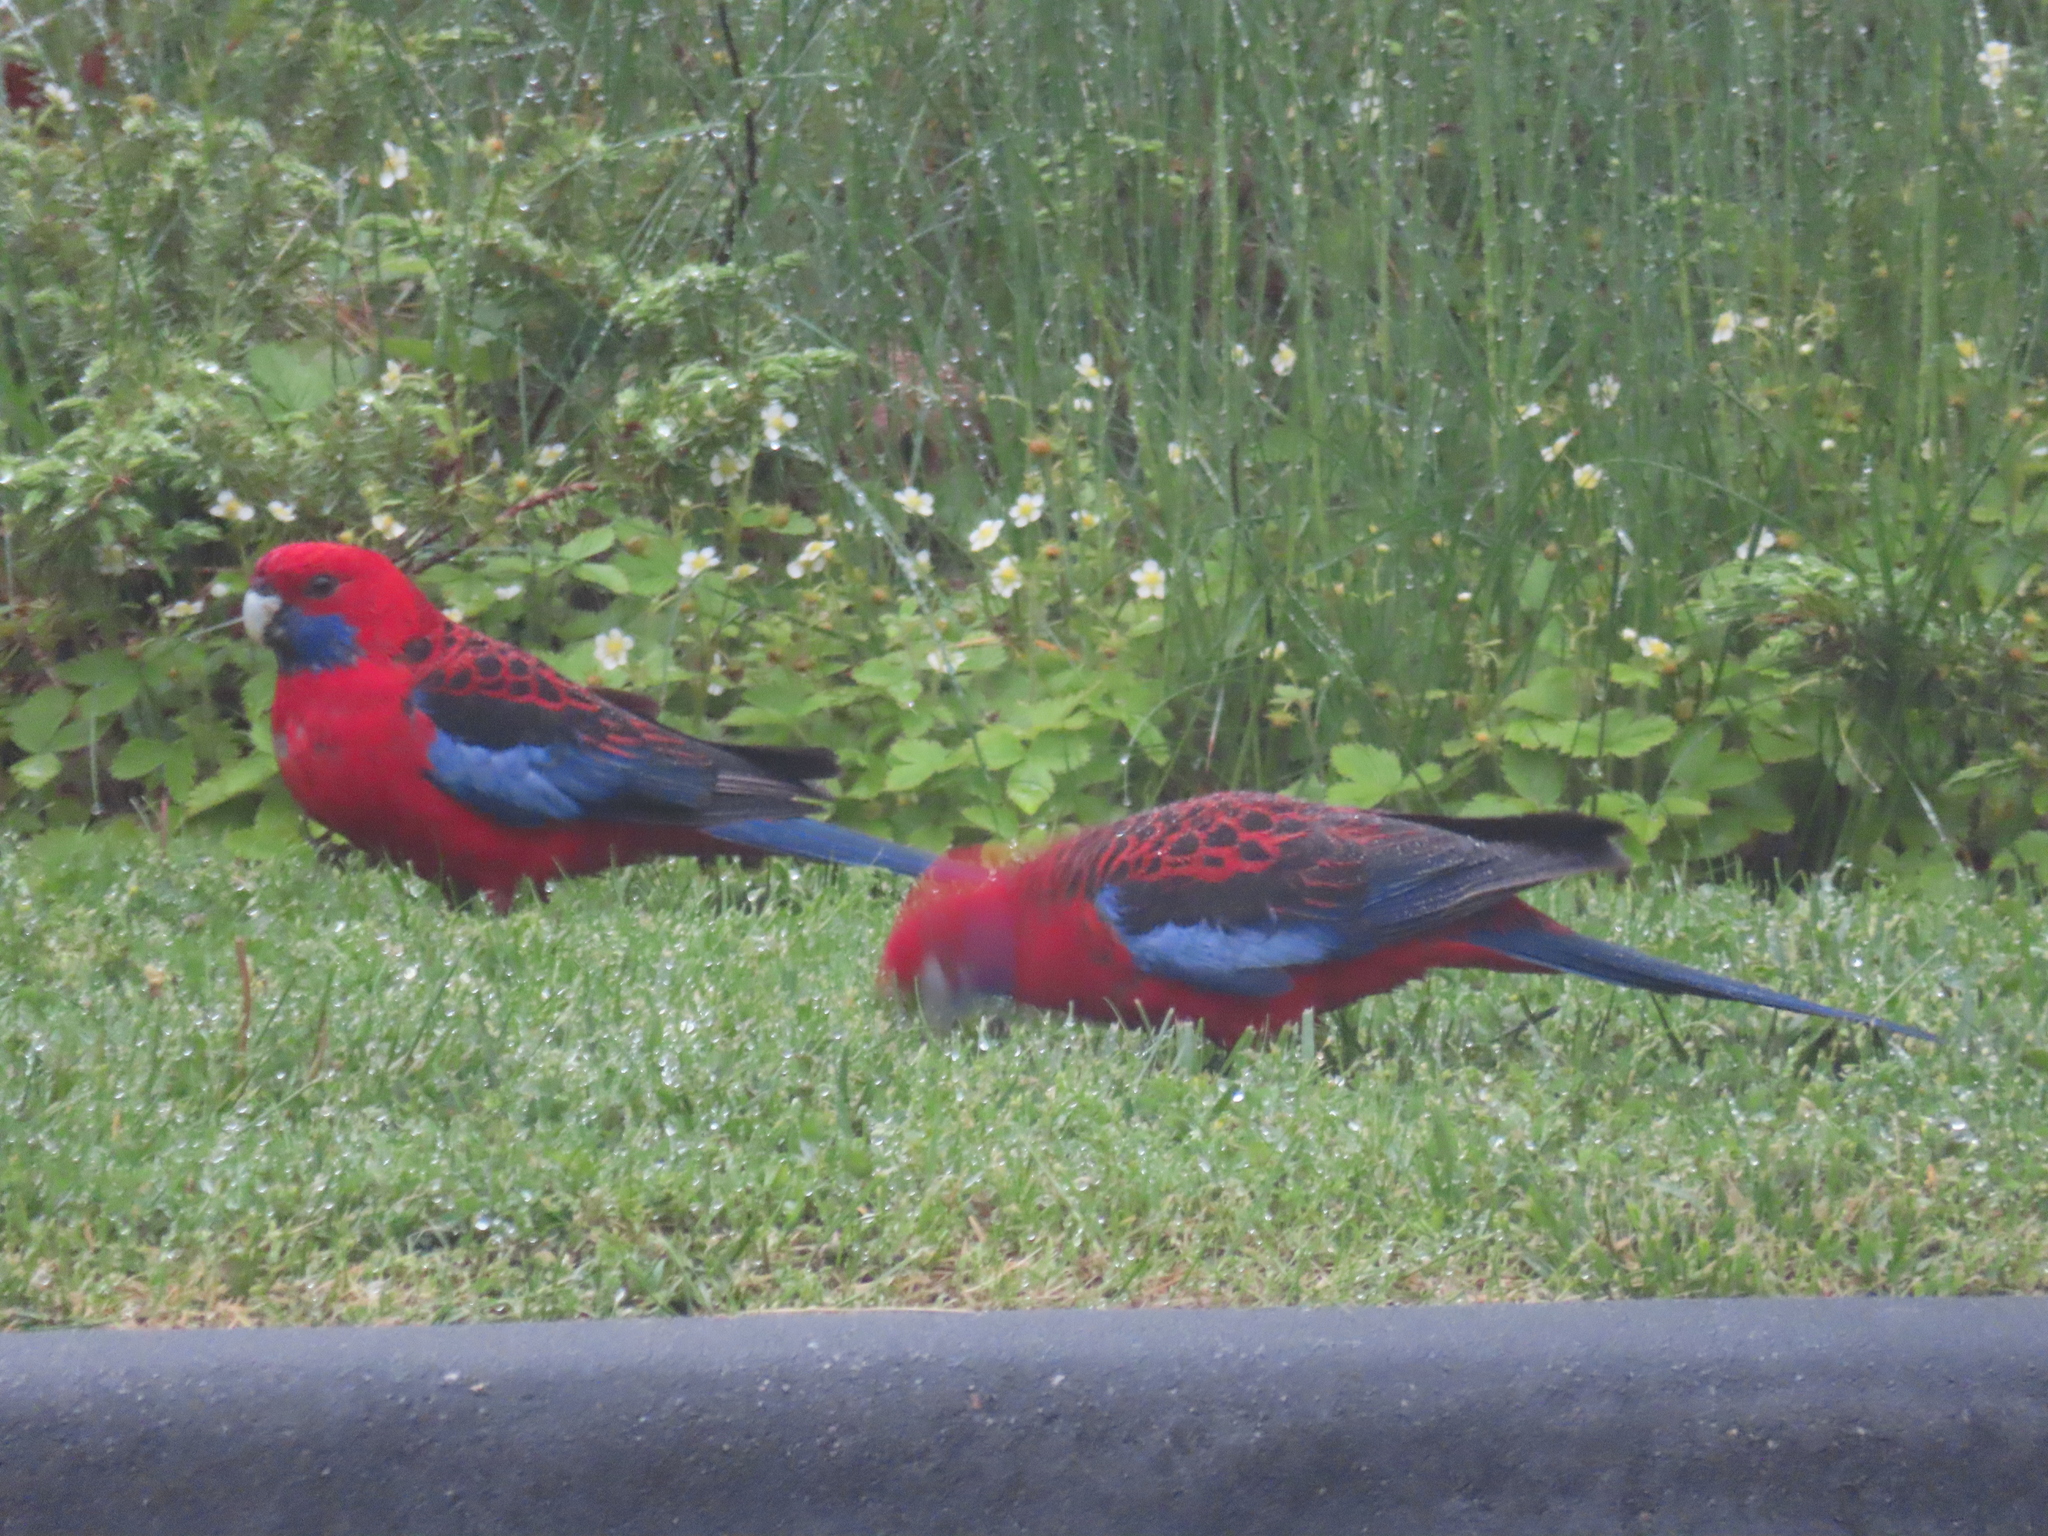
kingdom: Animalia
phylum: Chordata
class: Aves
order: Psittaciformes
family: Psittacidae
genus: Platycercus
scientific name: Platycercus elegans
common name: Crimson rosella
